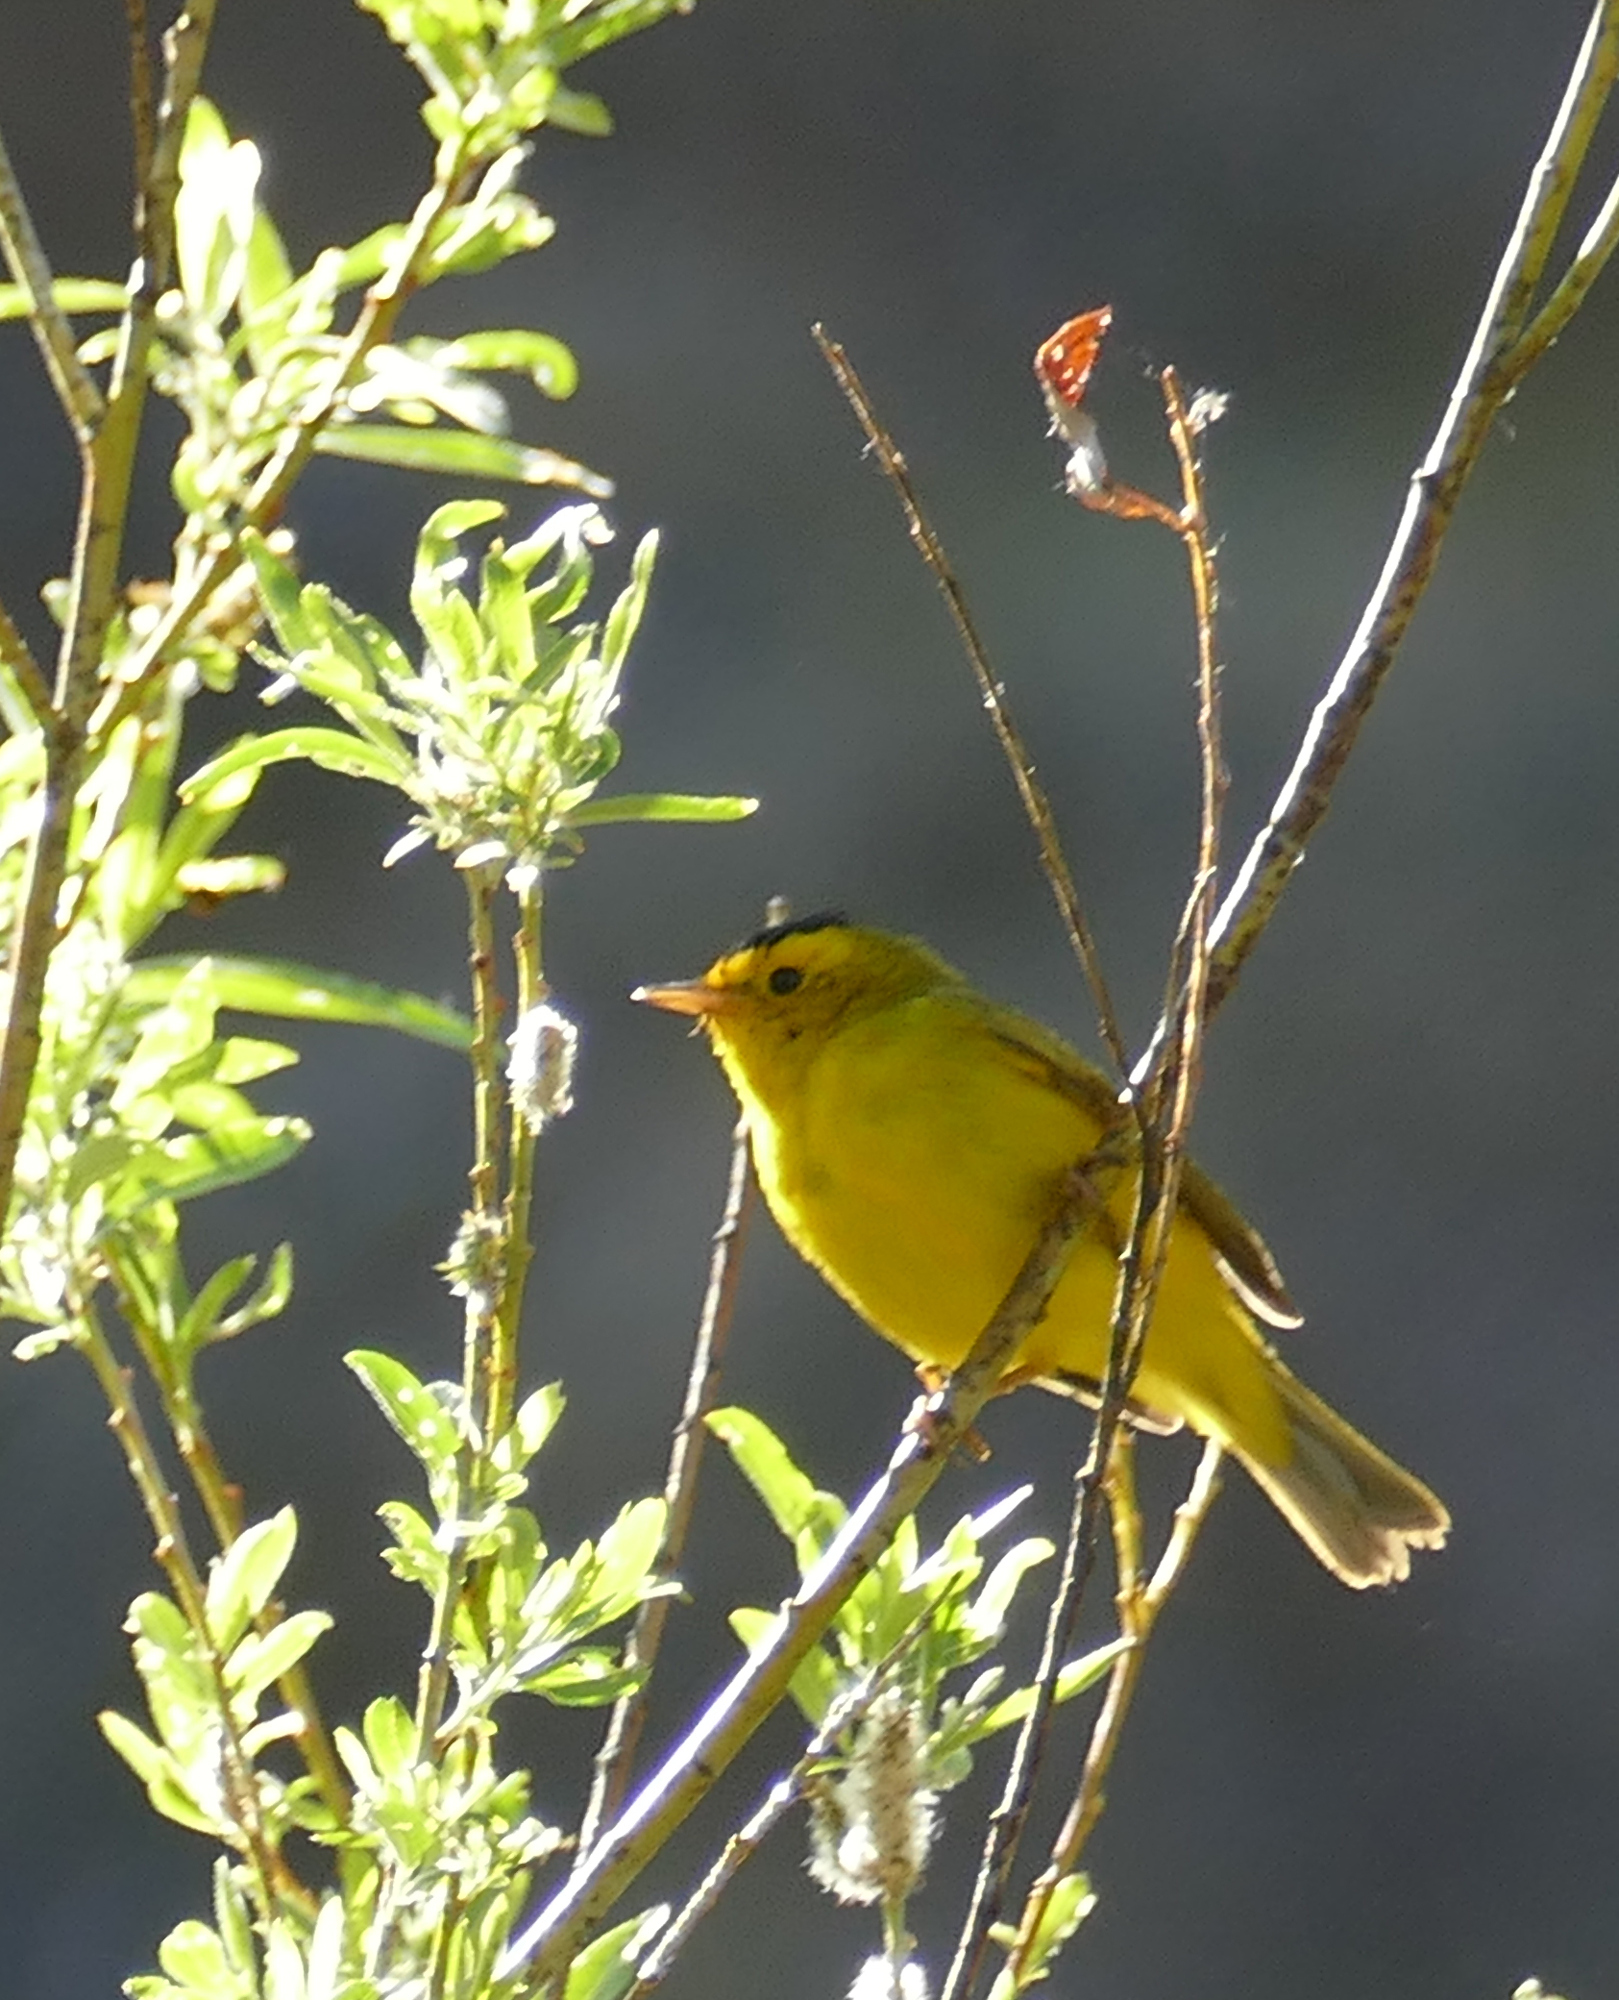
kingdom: Animalia
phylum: Chordata
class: Aves
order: Passeriformes
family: Parulidae
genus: Cardellina
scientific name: Cardellina pusilla
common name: Wilson's warbler
